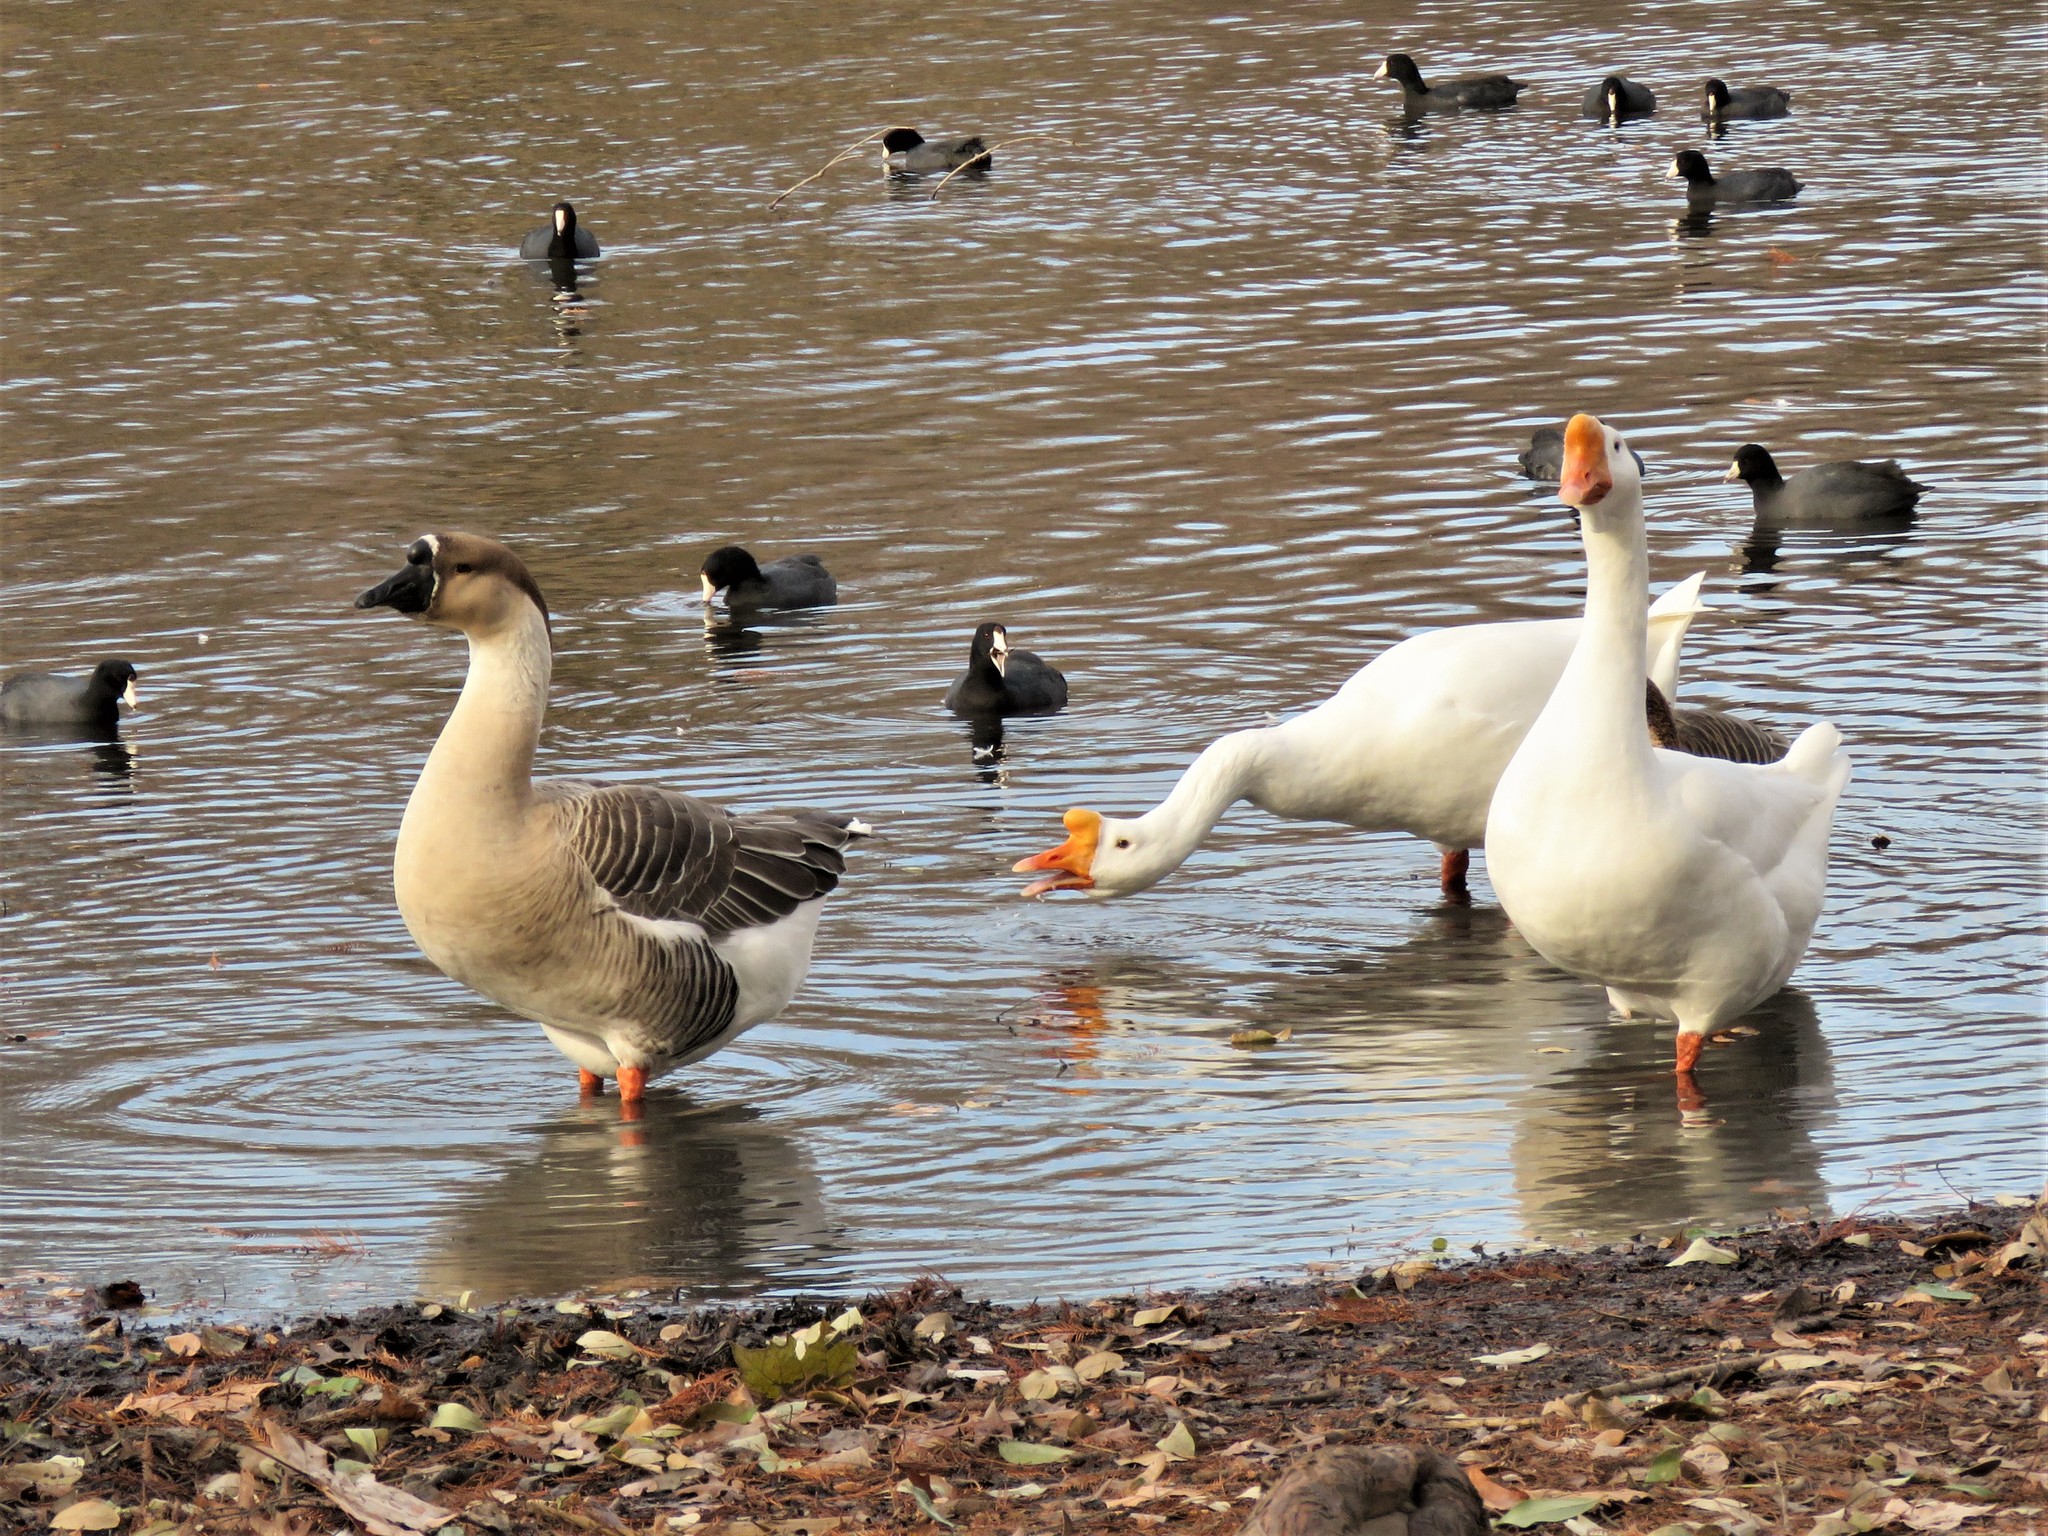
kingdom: Animalia
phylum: Chordata
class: Aves
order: Anseriformes
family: Anatidae
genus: Anser
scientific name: Anser cygnoides
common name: Swan goose
